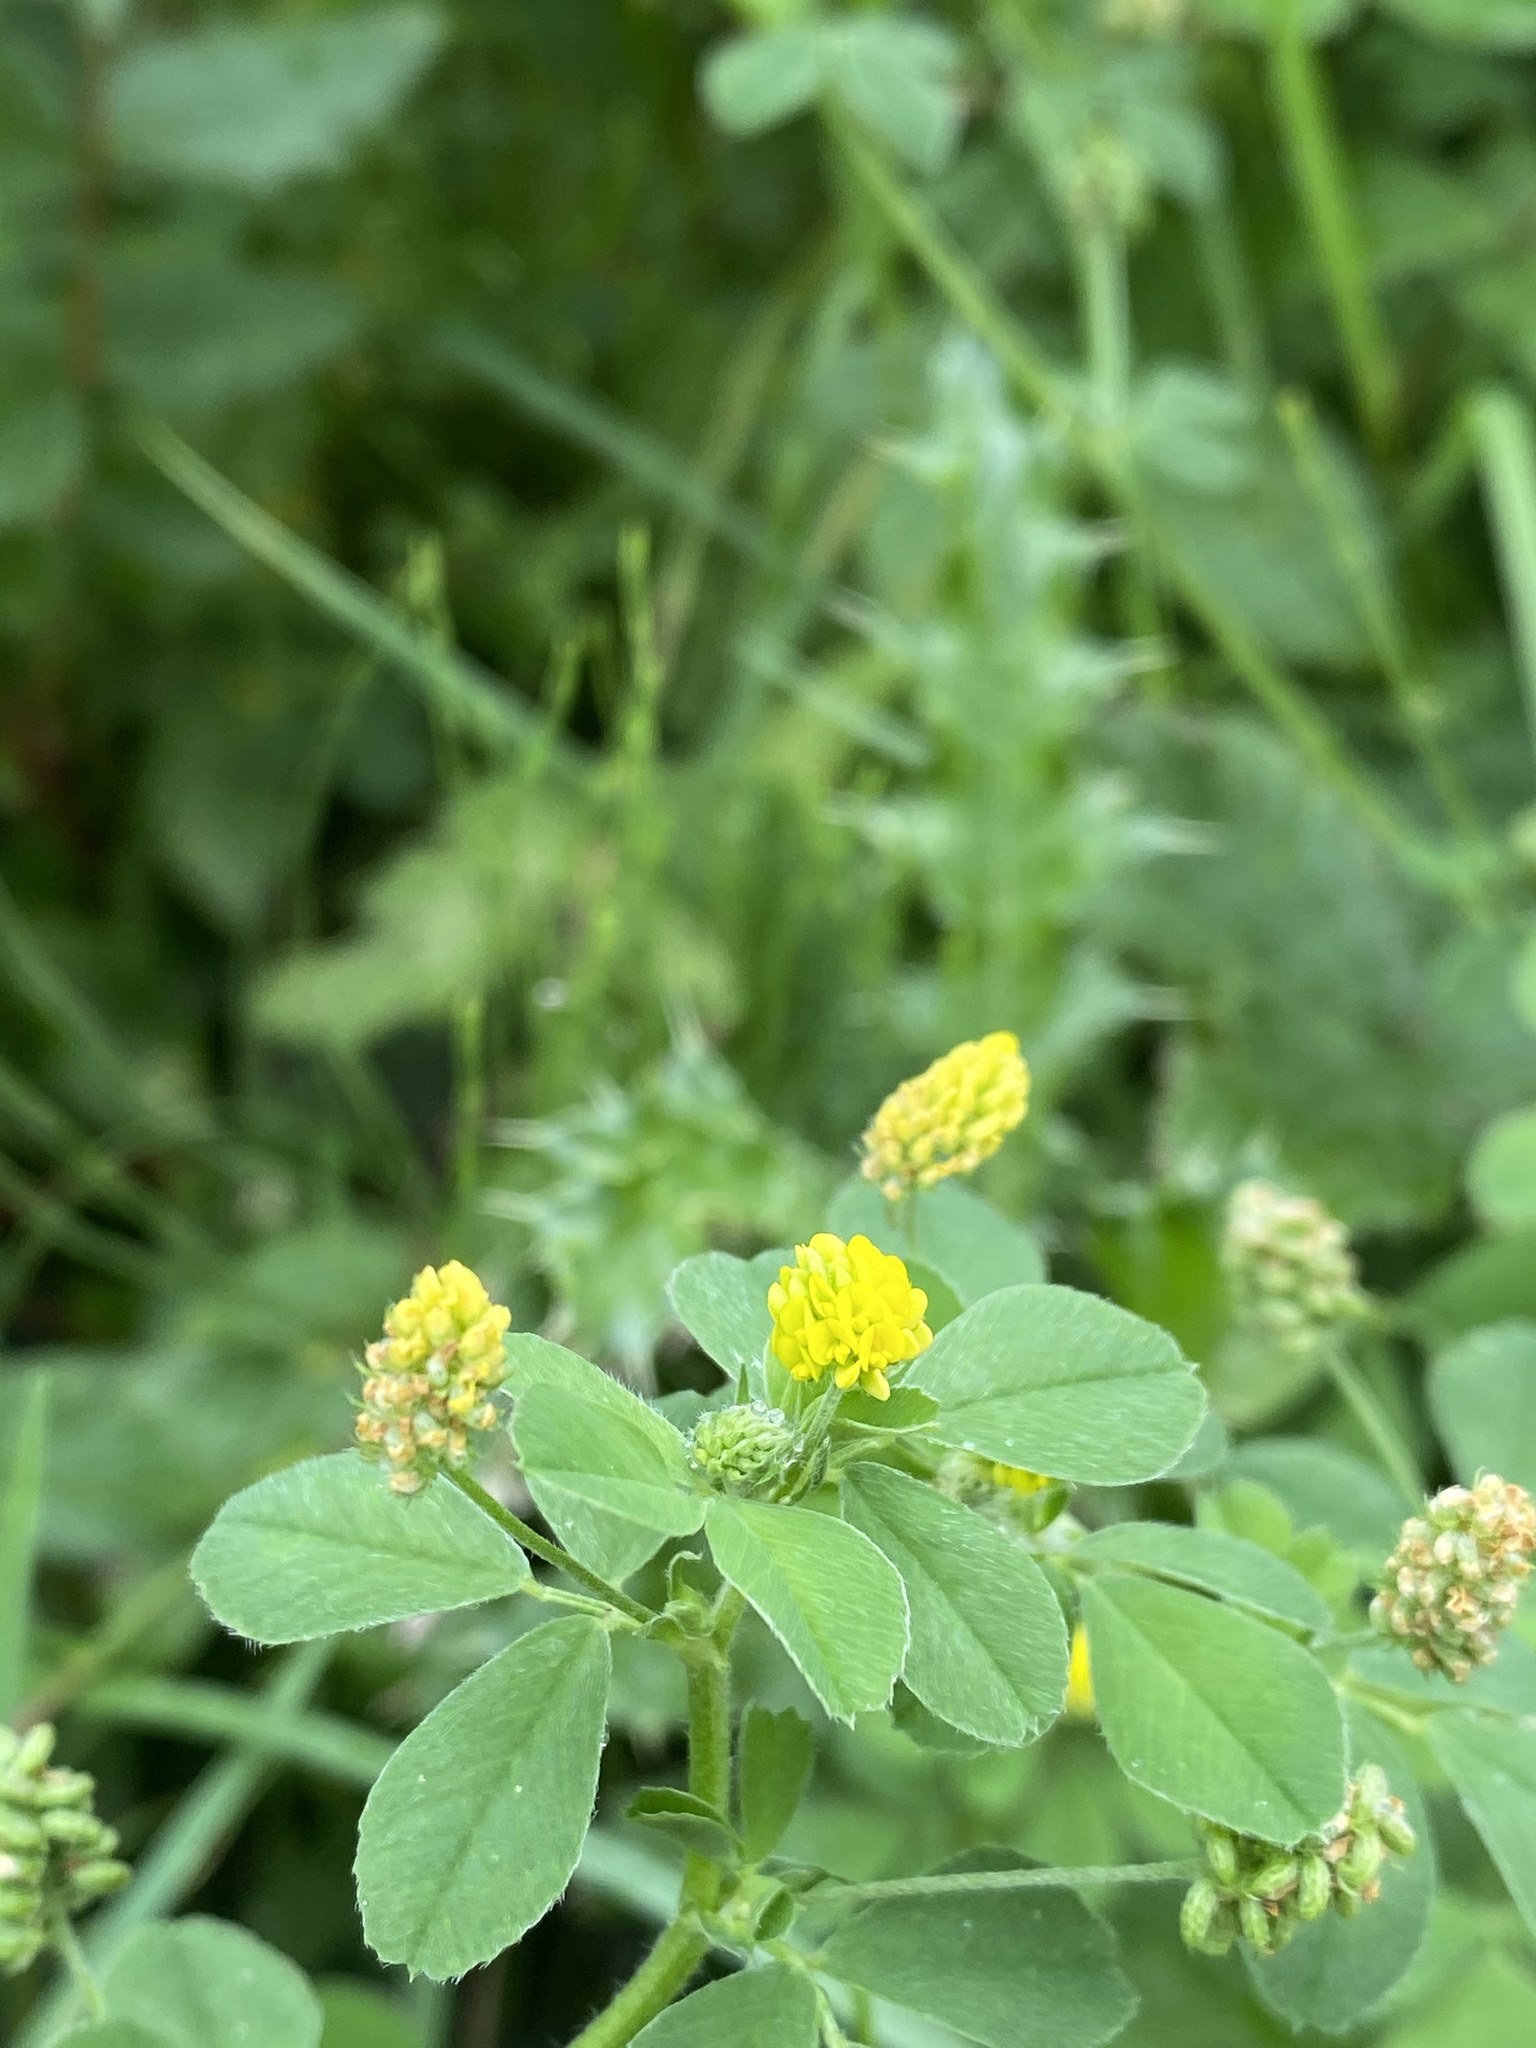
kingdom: Plantae
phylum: Tracheophyta
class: Magnoliopsida
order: Fabales
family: Fabaceae
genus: Medicago
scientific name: Medicago lupulina
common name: Black medick
